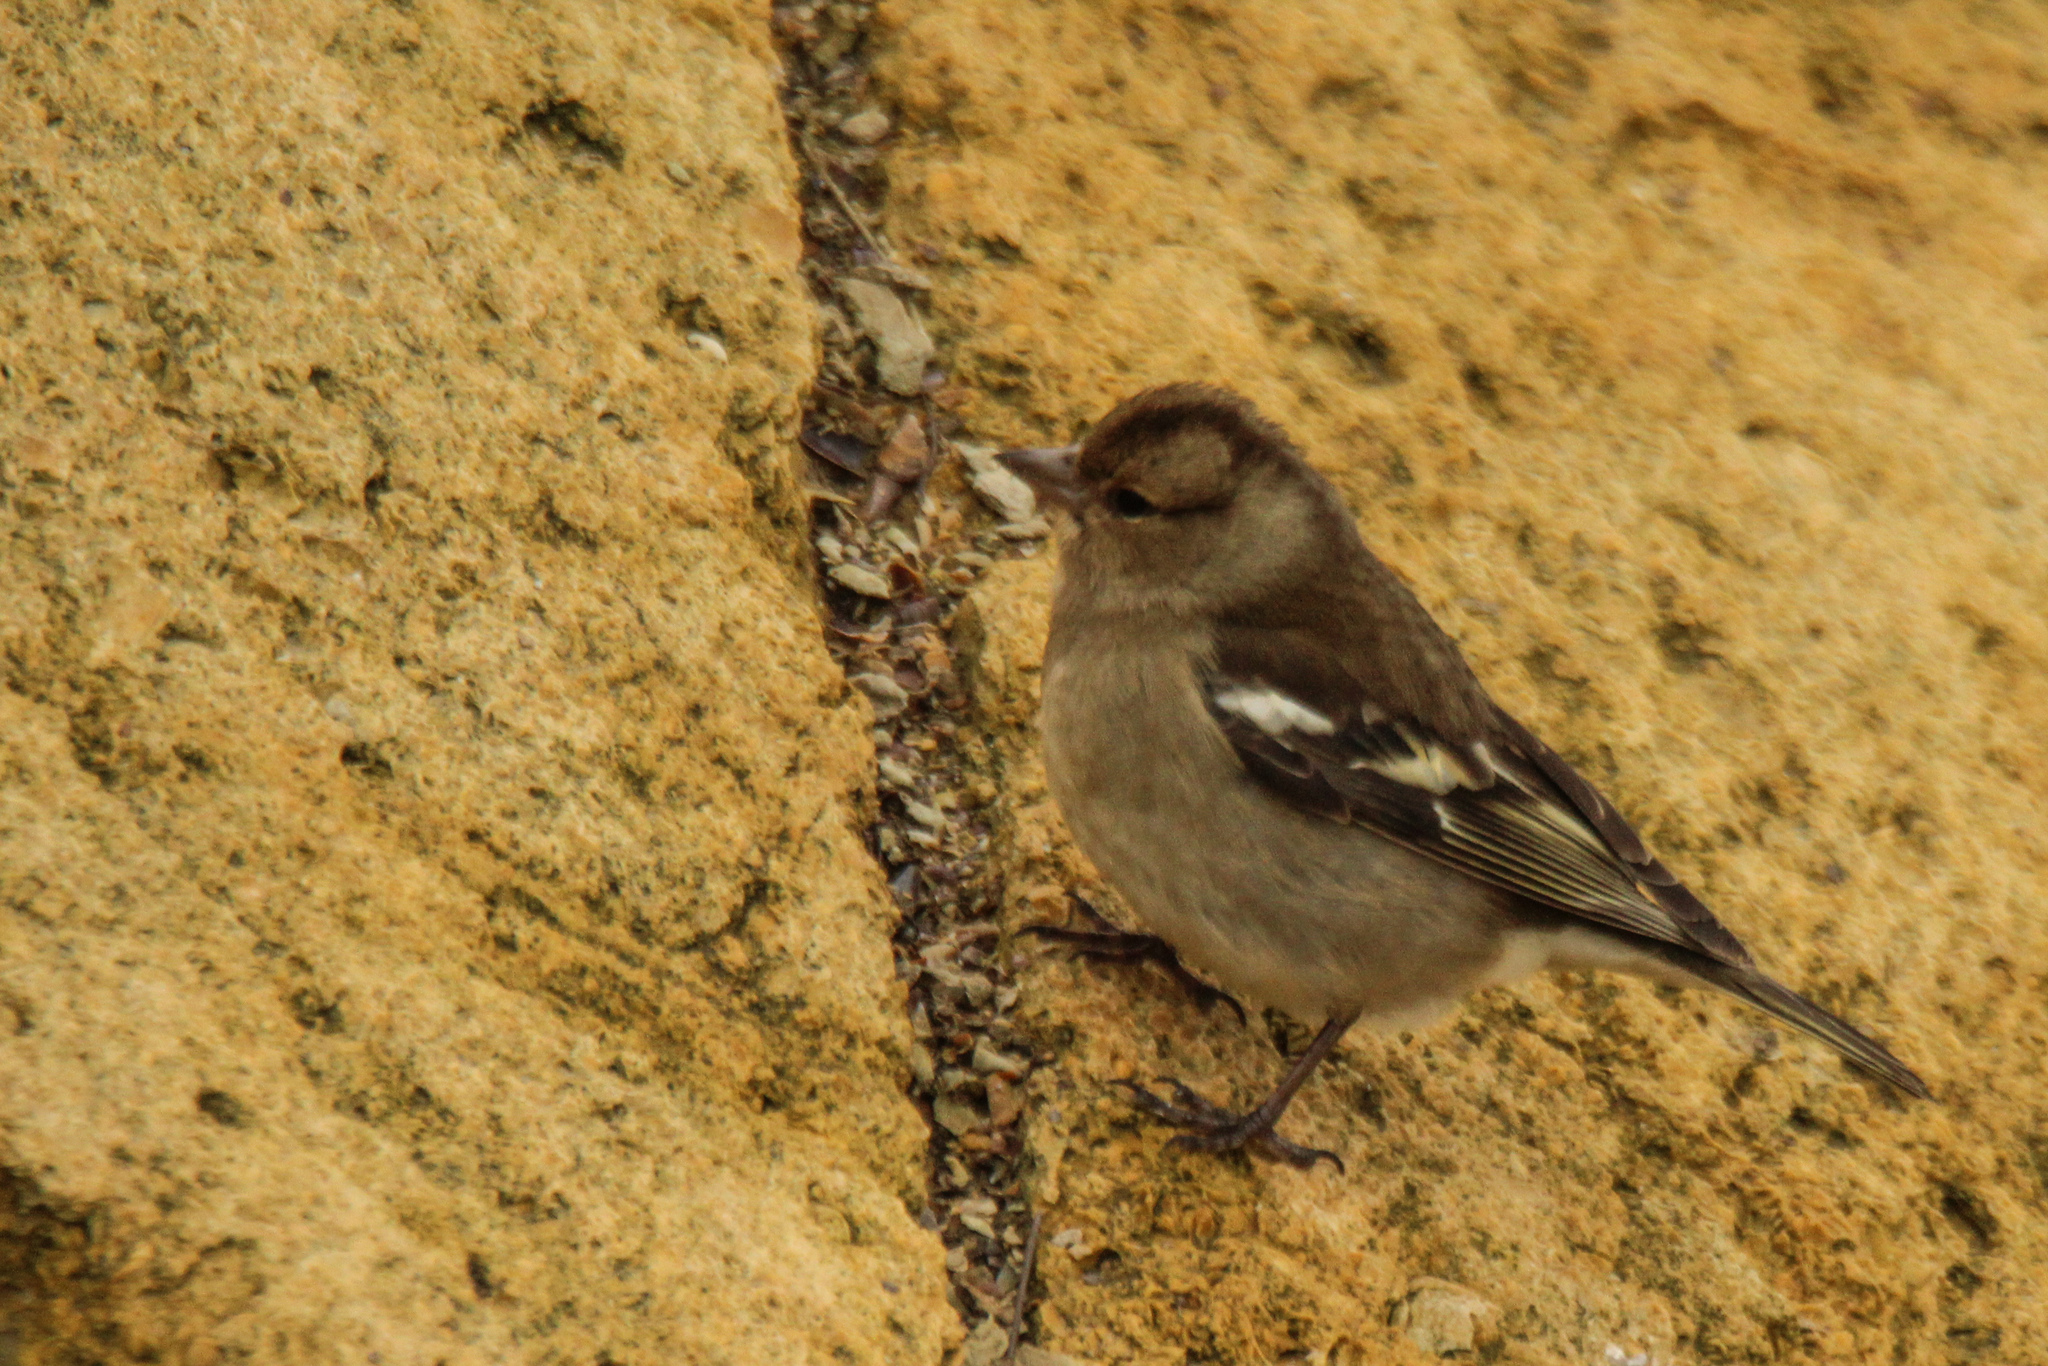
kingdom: Animalia
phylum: Chordata
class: Aves
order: Passeriformes
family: Fringillidae
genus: Fringilla
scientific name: Fringilla coelebs
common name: Common chaffinch
